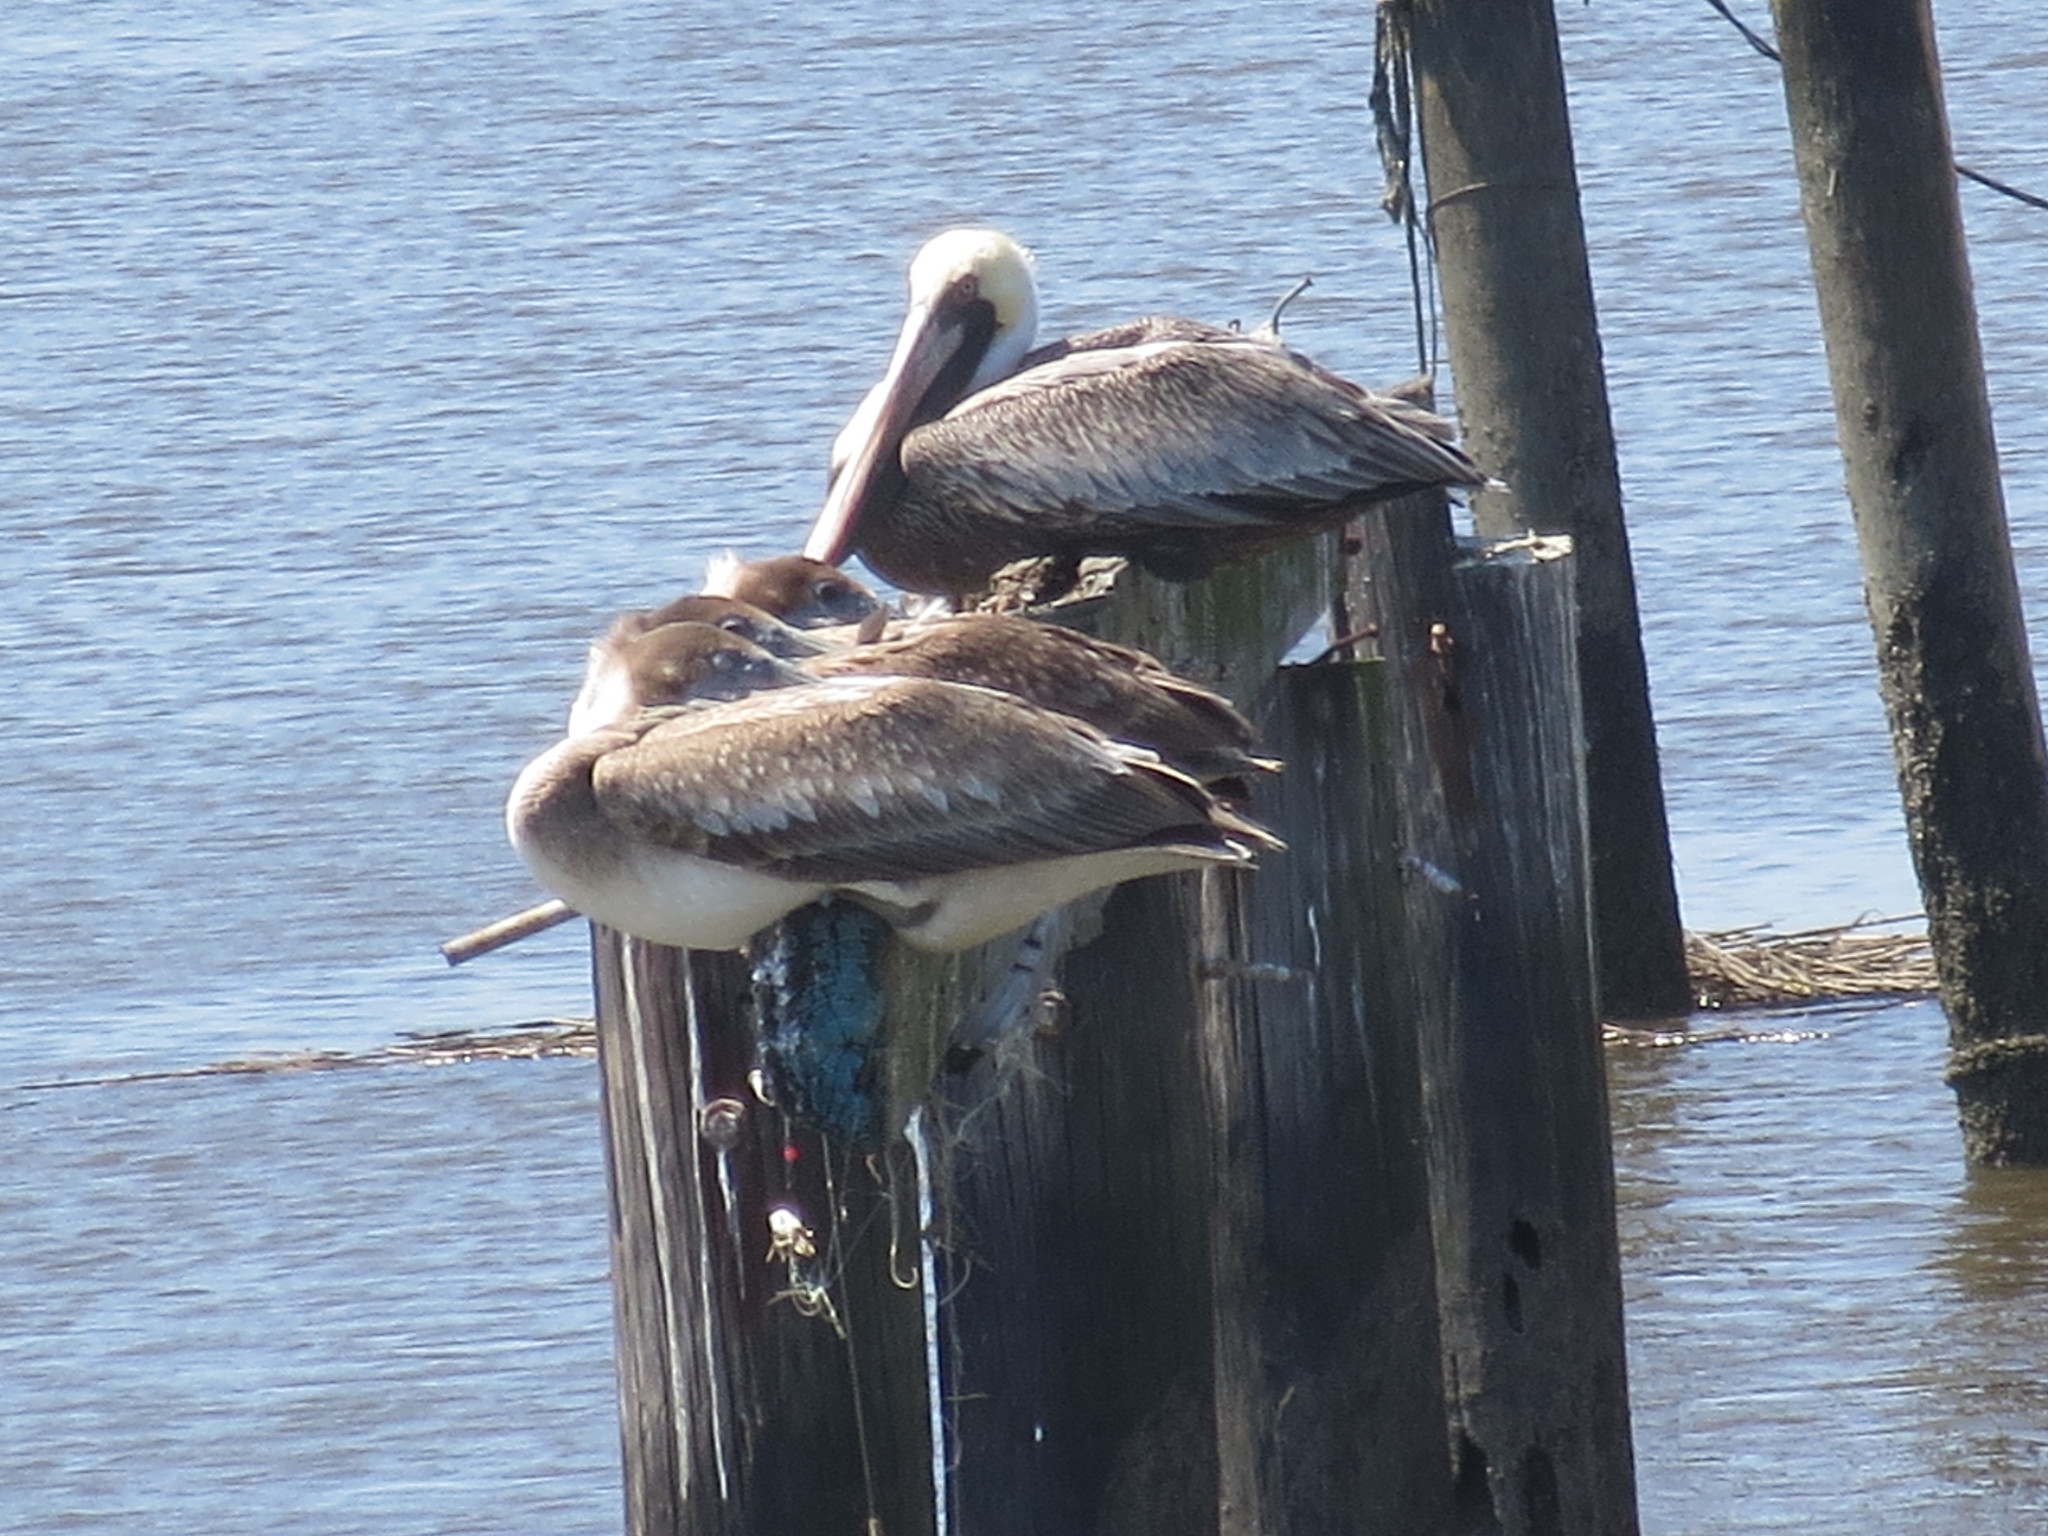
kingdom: Animalia
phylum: Chordata
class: Aves
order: Pelecaniformes
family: Pelecanidae
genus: Pelecanus
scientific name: Pelecanus occidentalis
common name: Brown pelican
